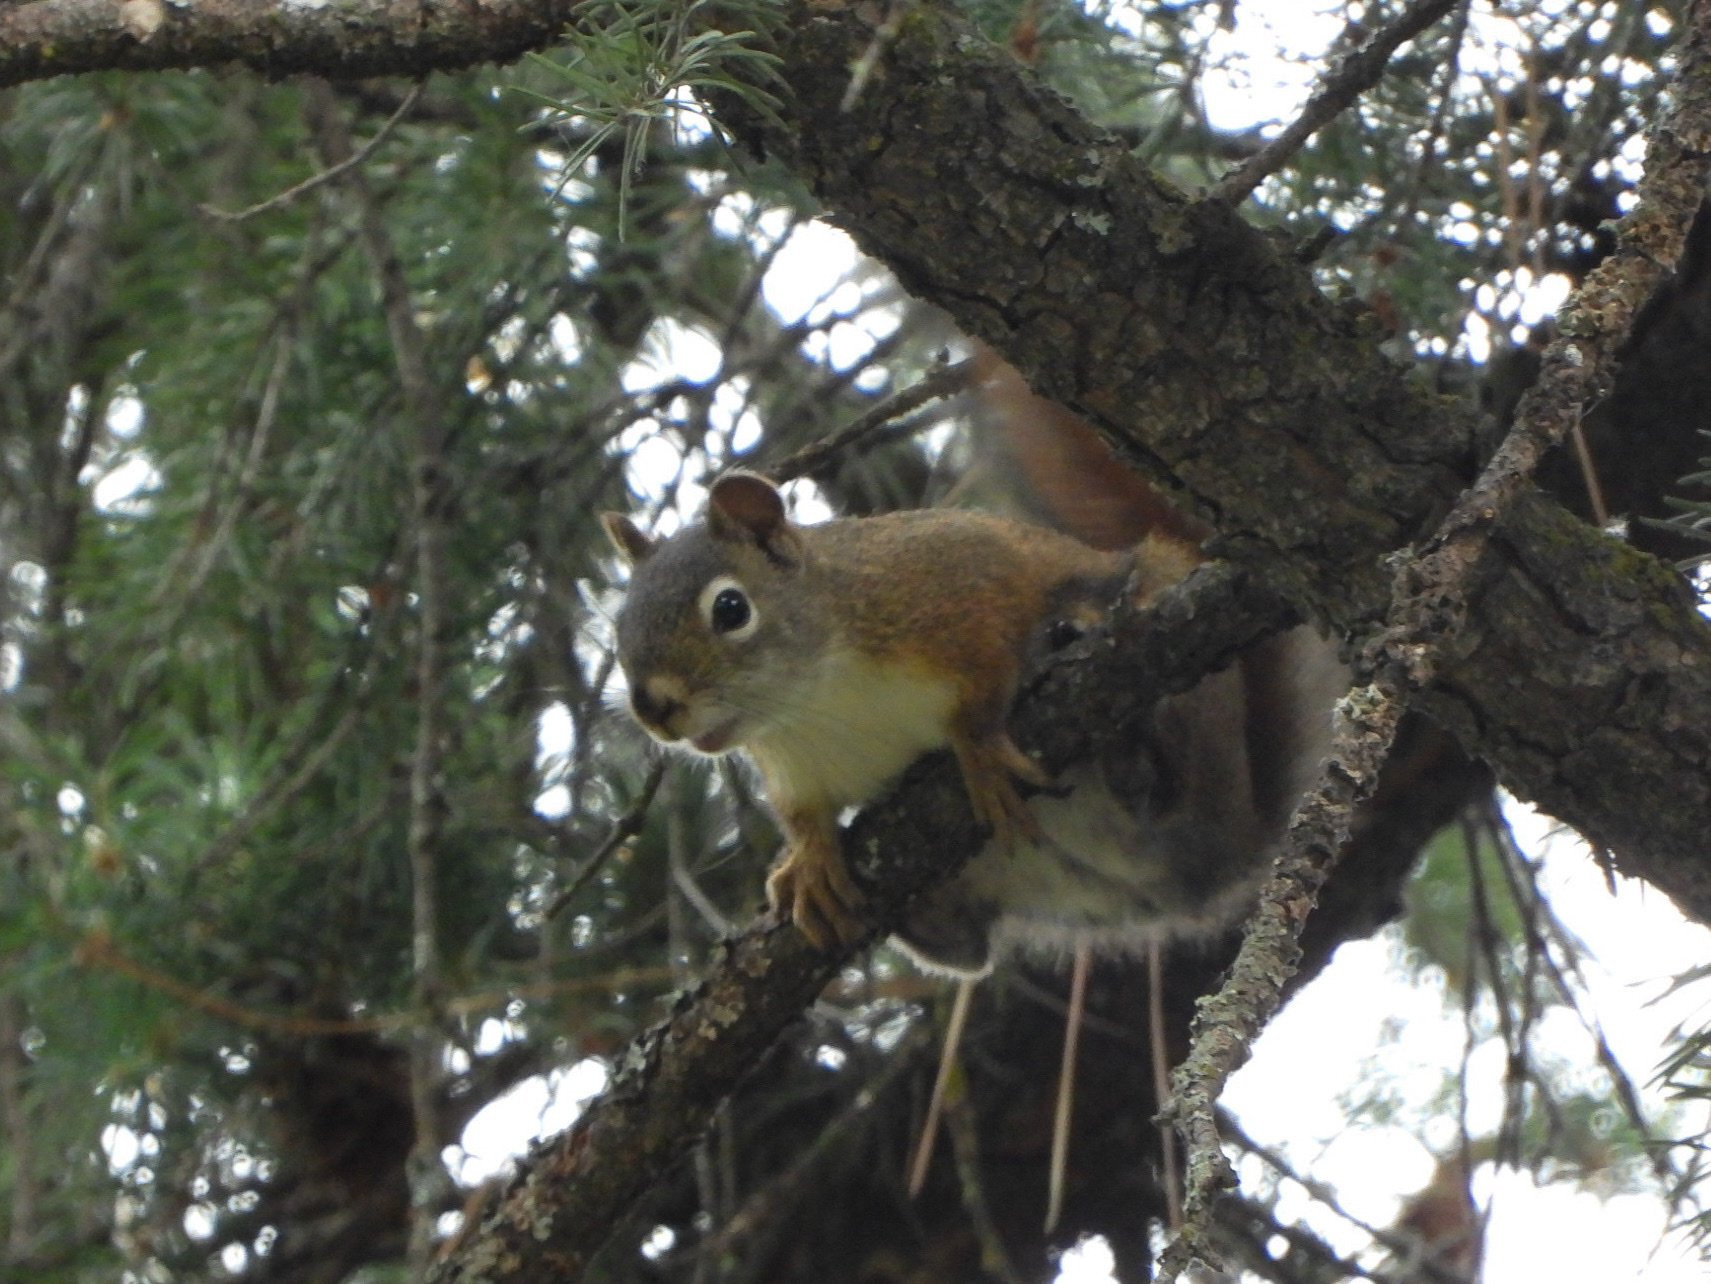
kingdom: Animalia
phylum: Chordata
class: Mammalia
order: Rodentia
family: Sciuridae
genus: Tamiasciurus
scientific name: Tamiasciurus hudsonicus
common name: Red squirrel
